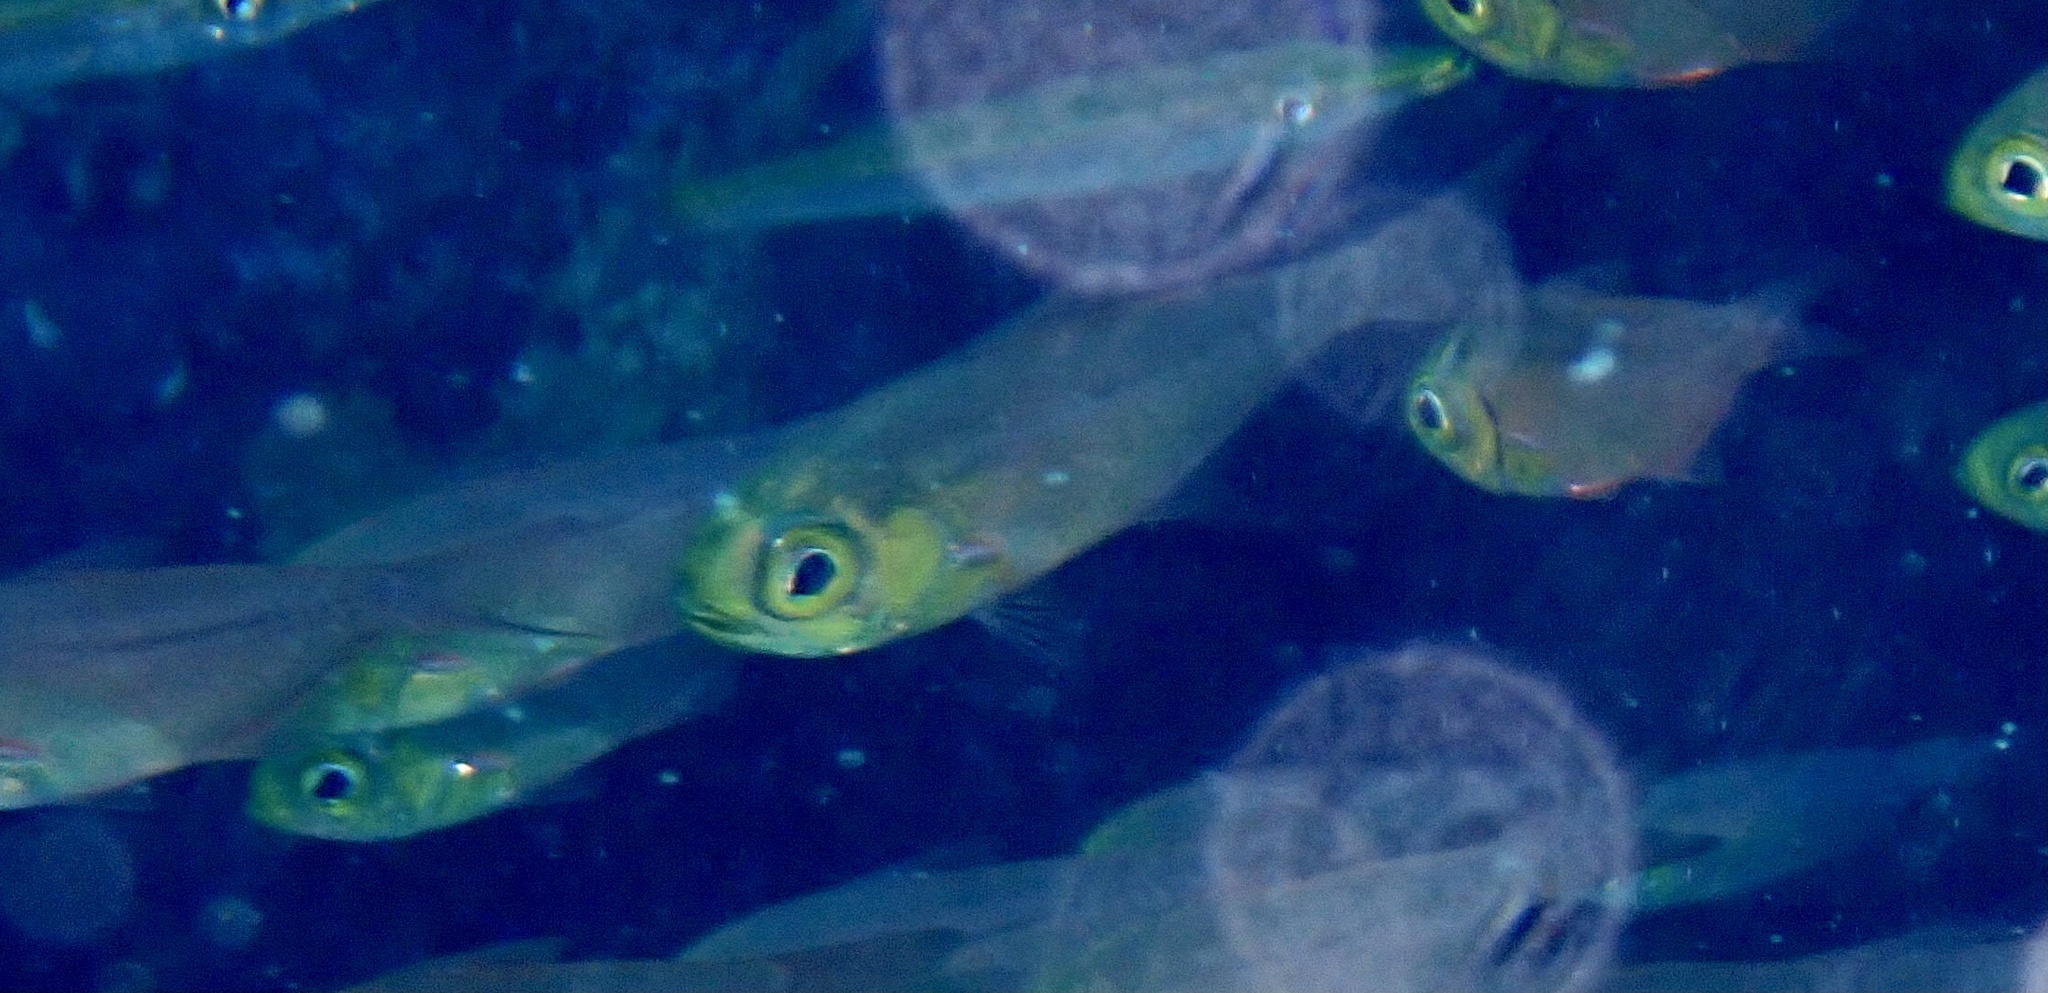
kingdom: Animalia
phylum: Chordata
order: Perciformes
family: Pempheridae
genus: Parapriacanthus
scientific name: Parapriacanthus guentheri
